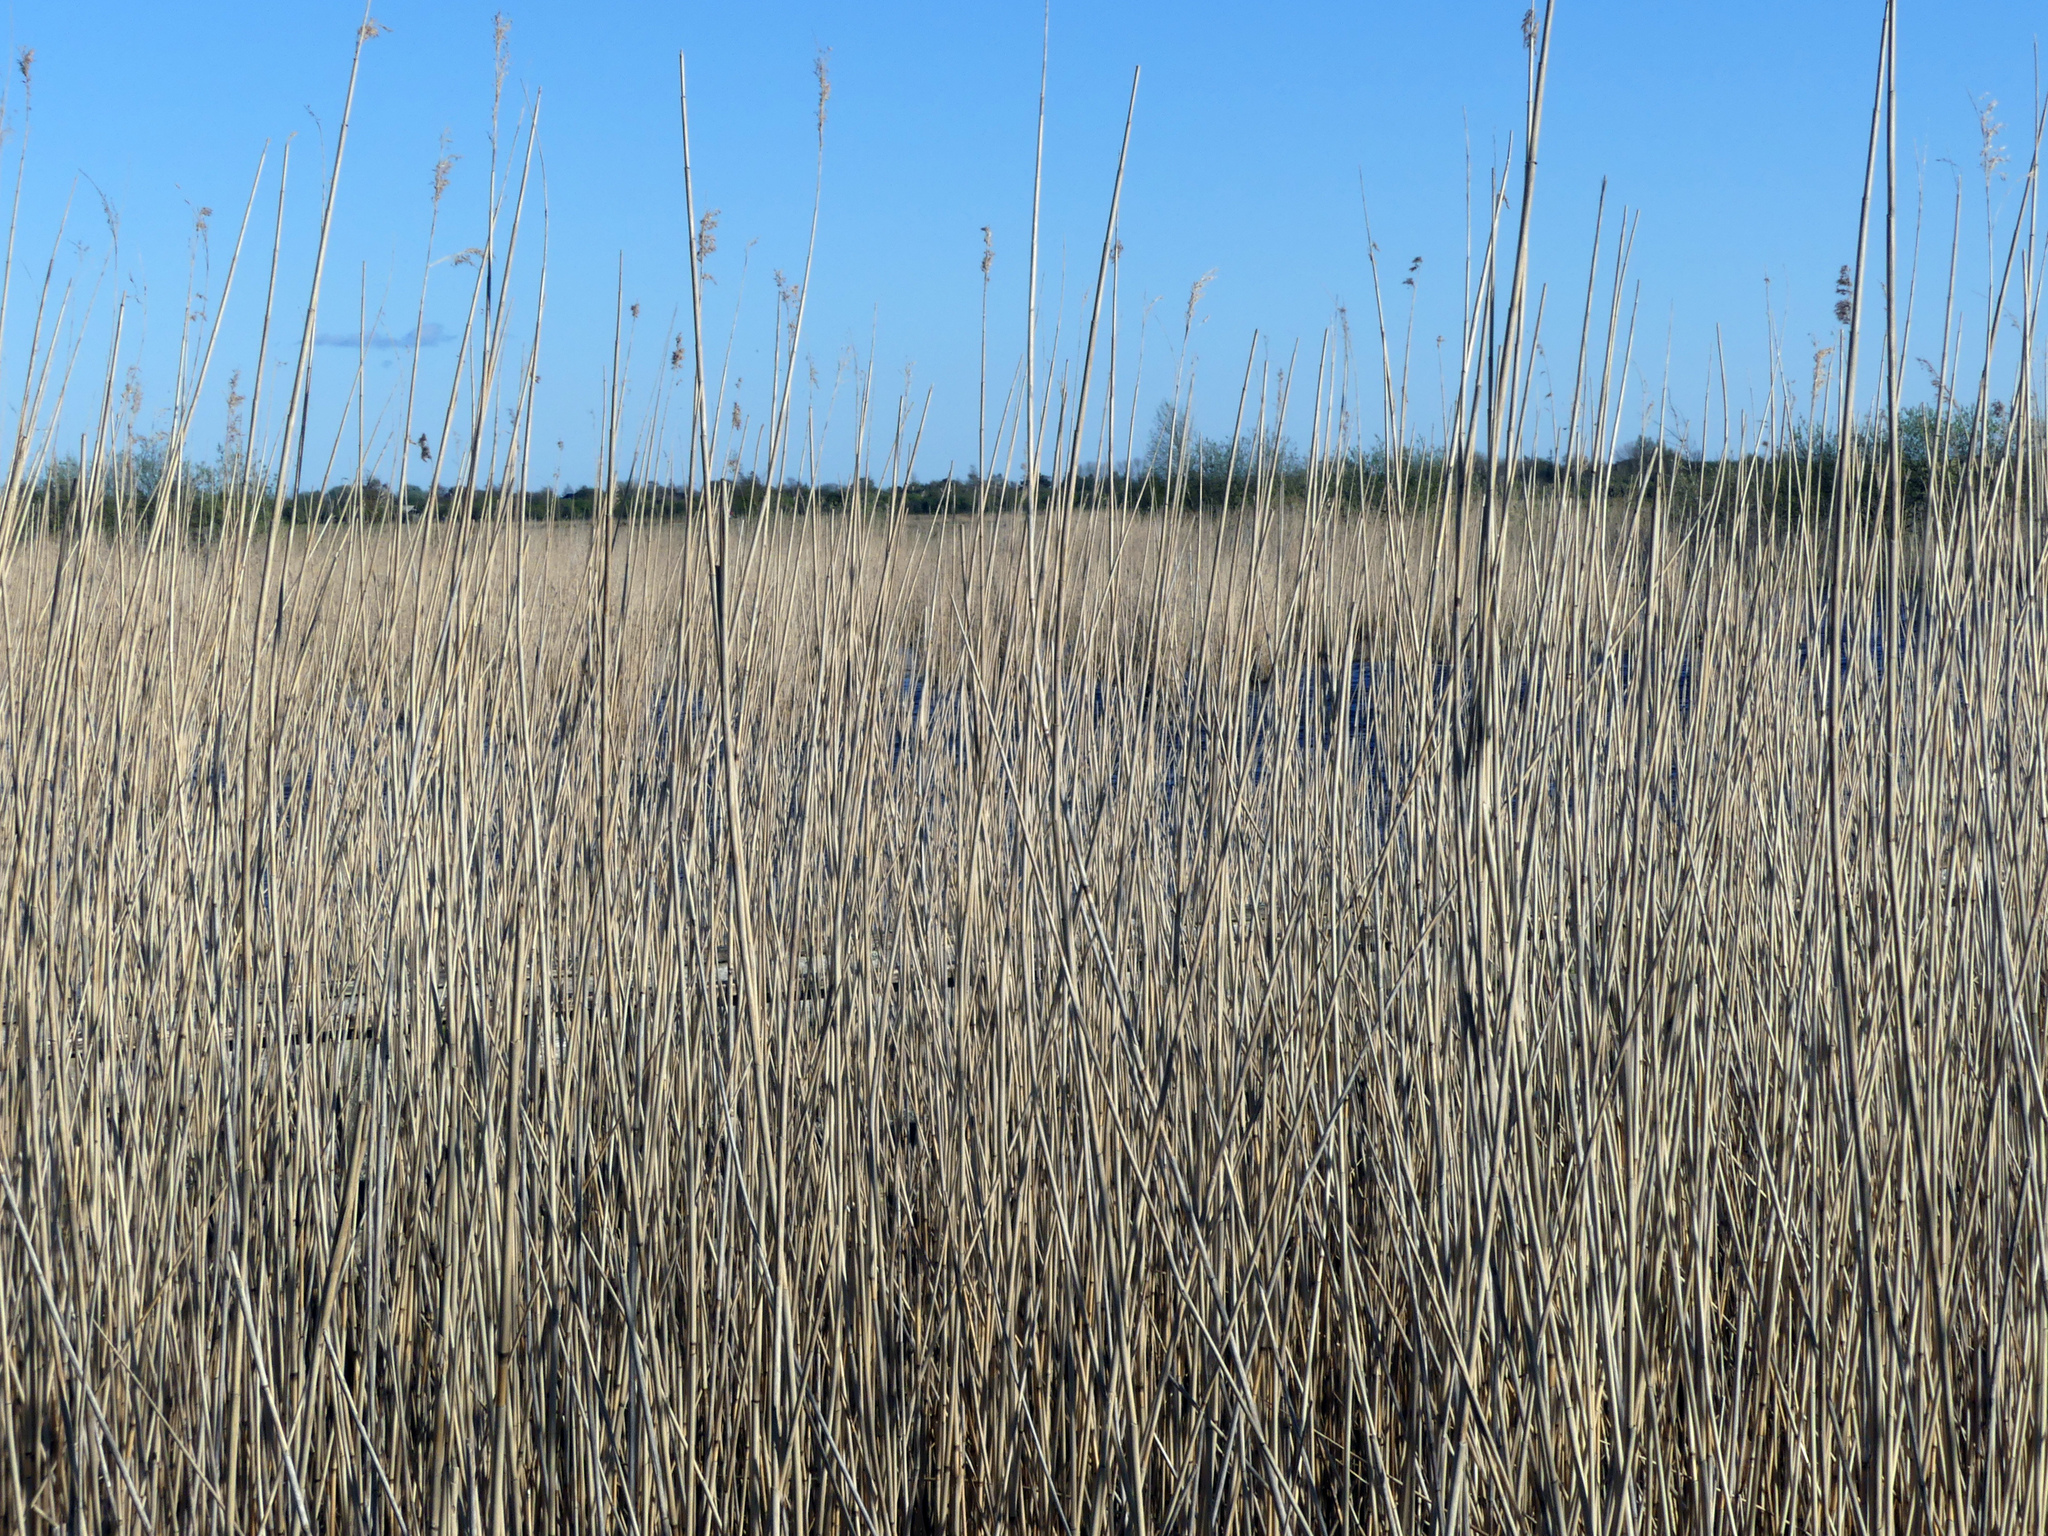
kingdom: Plantae
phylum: Tracheophyta
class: Liliopsida
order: Poales
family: Poaceae
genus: Phragmites
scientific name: Phragmites australis
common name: Common reed
